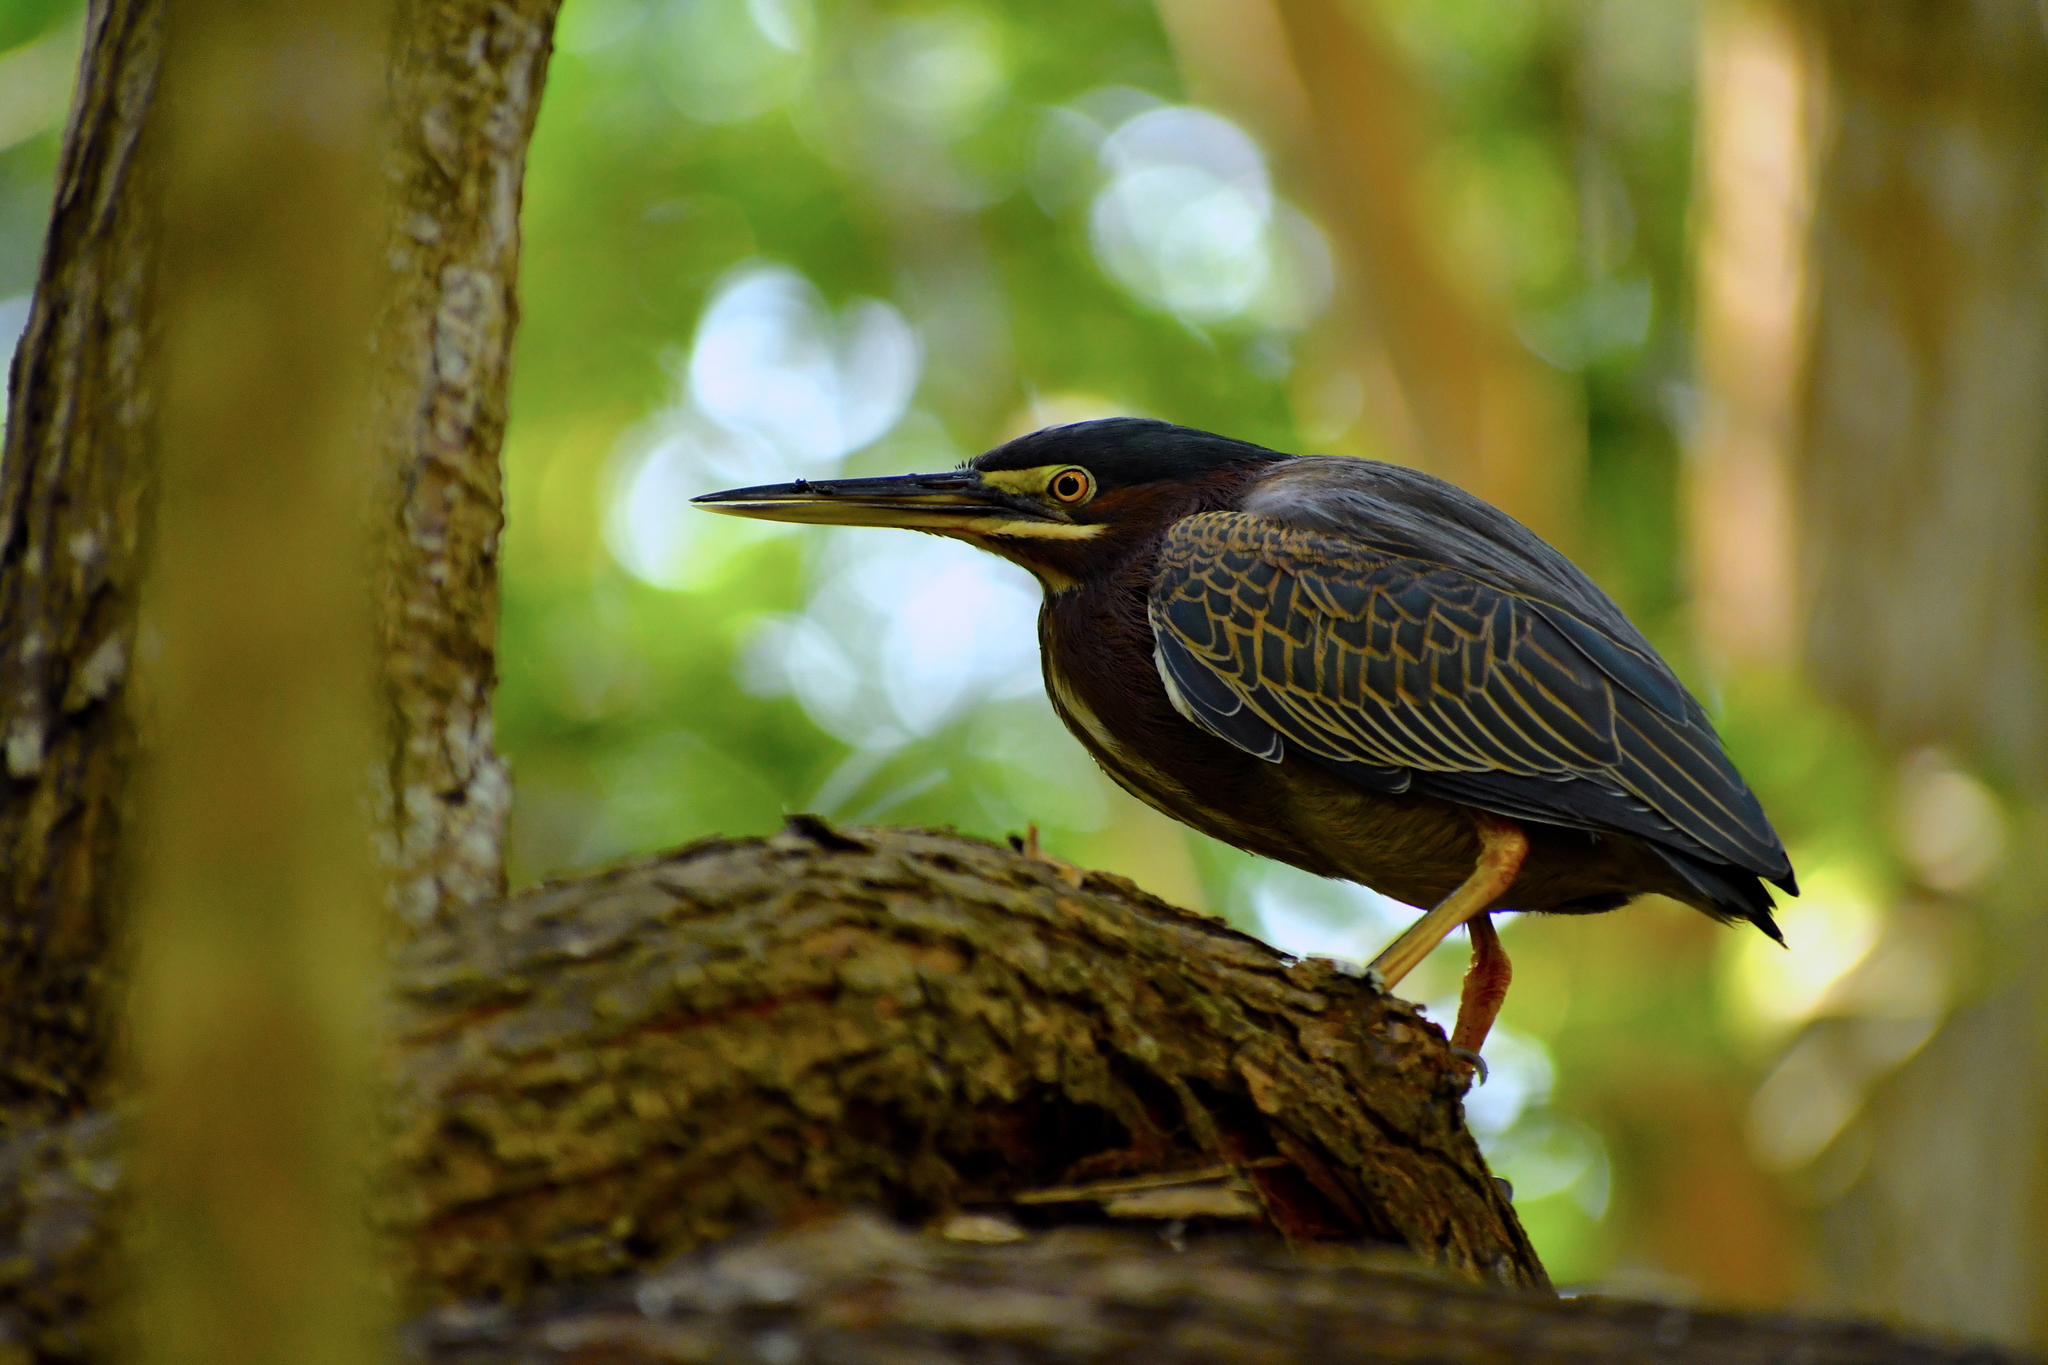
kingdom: Animalia
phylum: Chordata
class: Aves
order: Pelecaniformes
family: Ardeidae
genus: Butorides
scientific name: Butorides virescens
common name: Green heron
